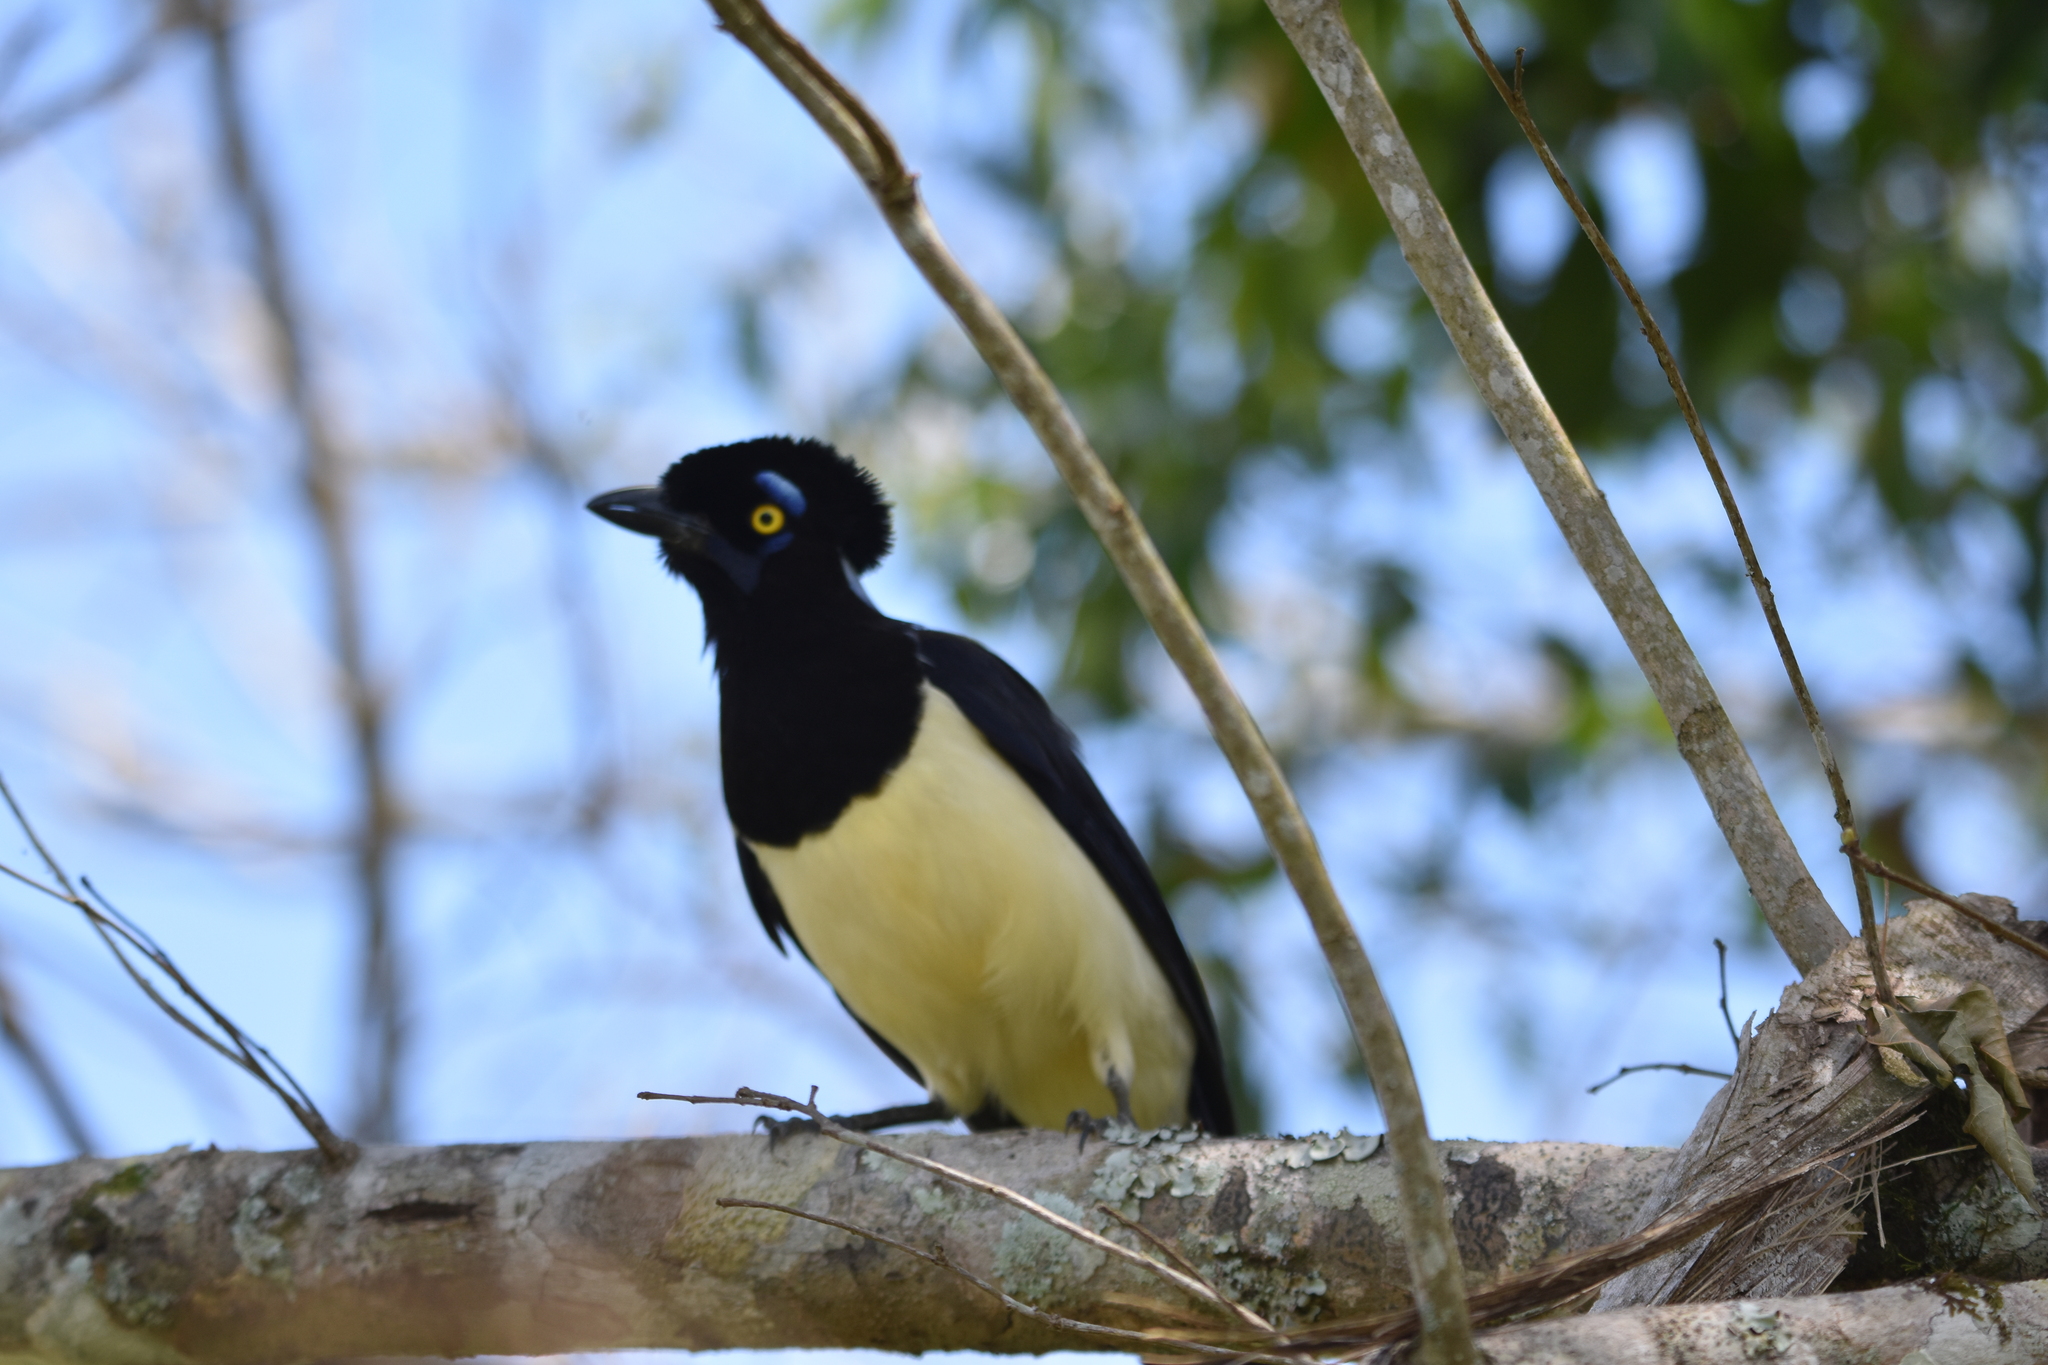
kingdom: Animalia
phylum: Chordata
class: Aves
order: Passeriformes
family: Corvidae
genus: Cyanocorax
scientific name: Cyanocorax chrysops
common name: Plush-crested jay
